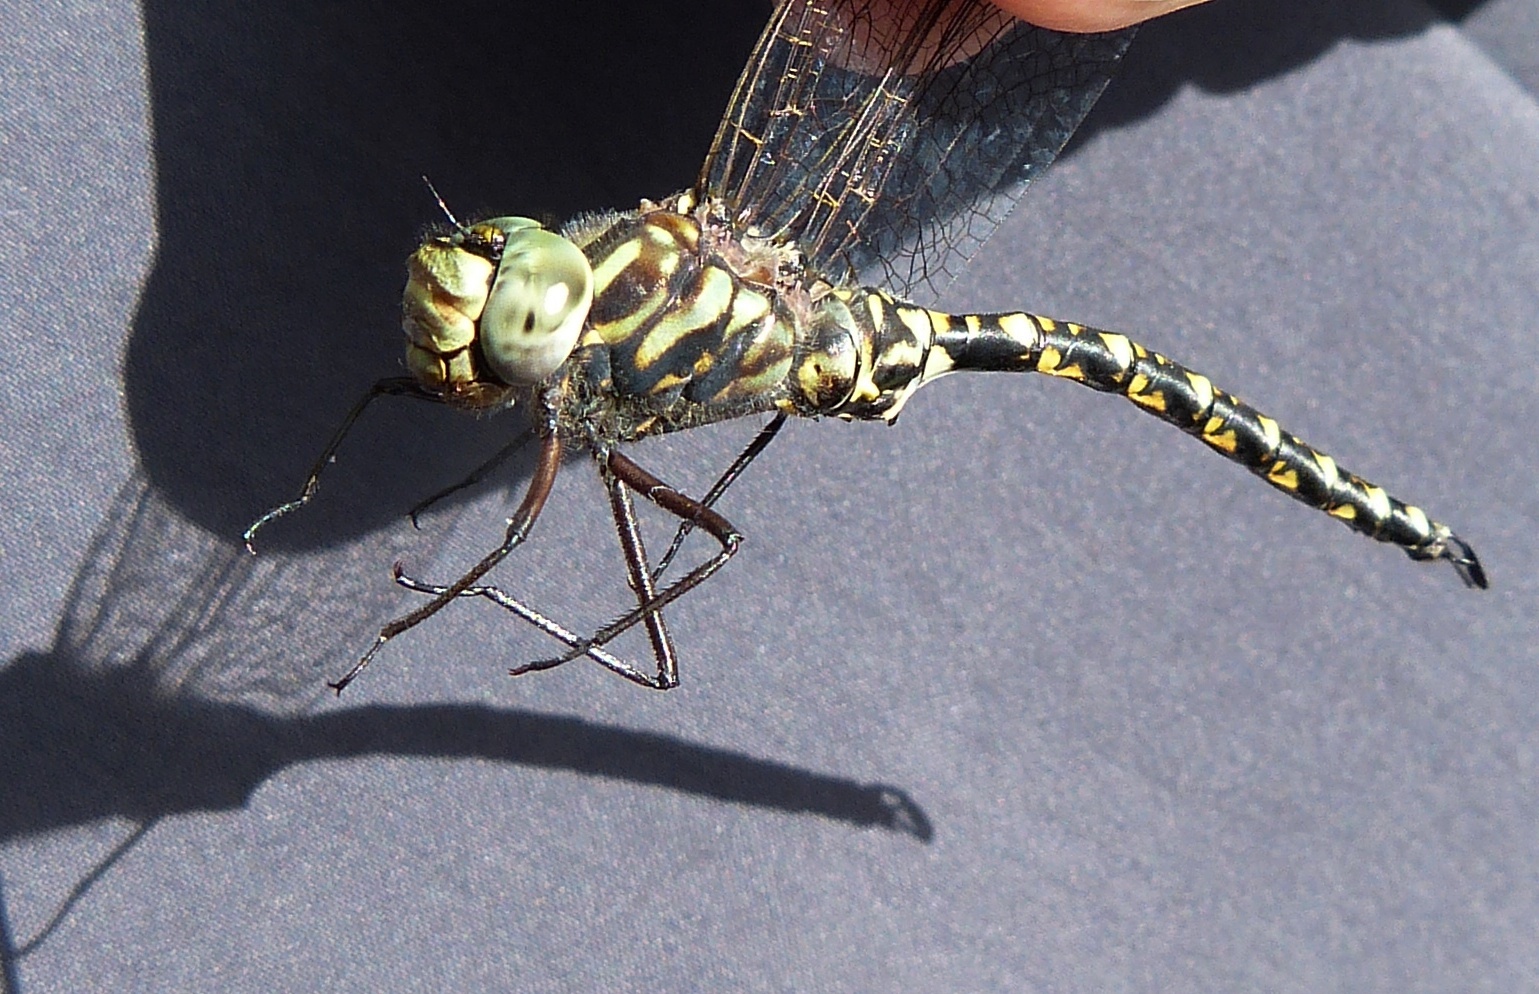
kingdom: Animalia
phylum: Arthropoda
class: Insecta
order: Odonata
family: Aeshnidae
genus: Gomphaeschna
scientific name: Gomphaeschna furcillata
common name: Harlequin darner
